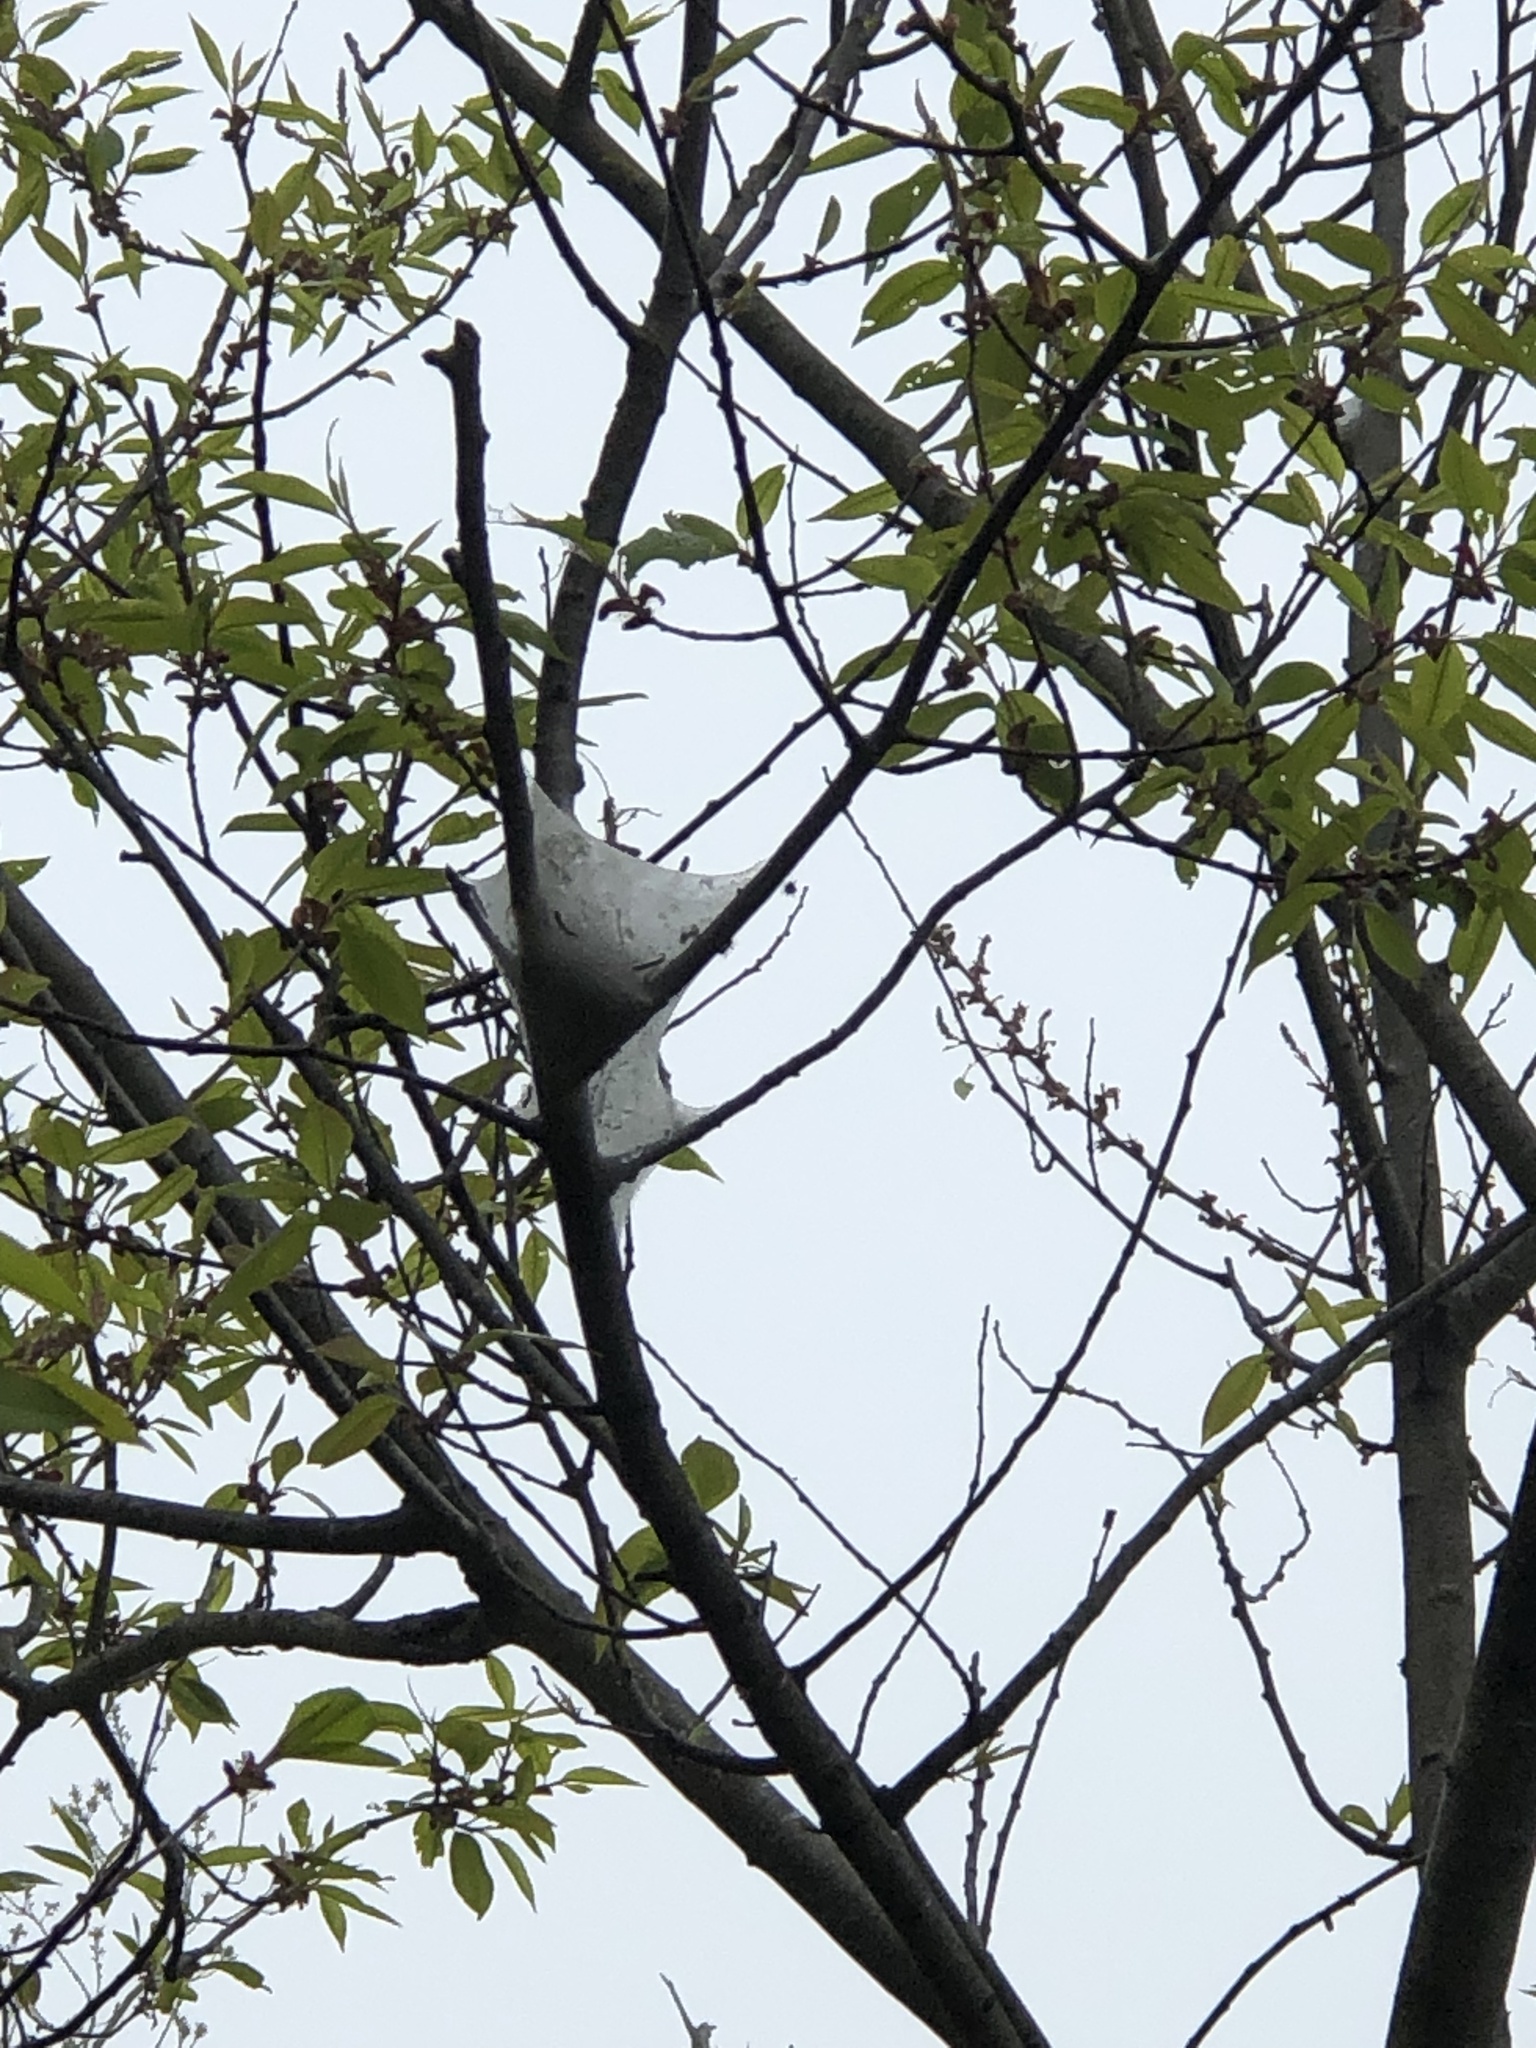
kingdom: Animalia
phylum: Arthropoda
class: Insecta
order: Lepidoptera
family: Lasiocampidae
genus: Malacosoma
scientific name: Malacosoma americana
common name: Eastern tent caterpillar moth
